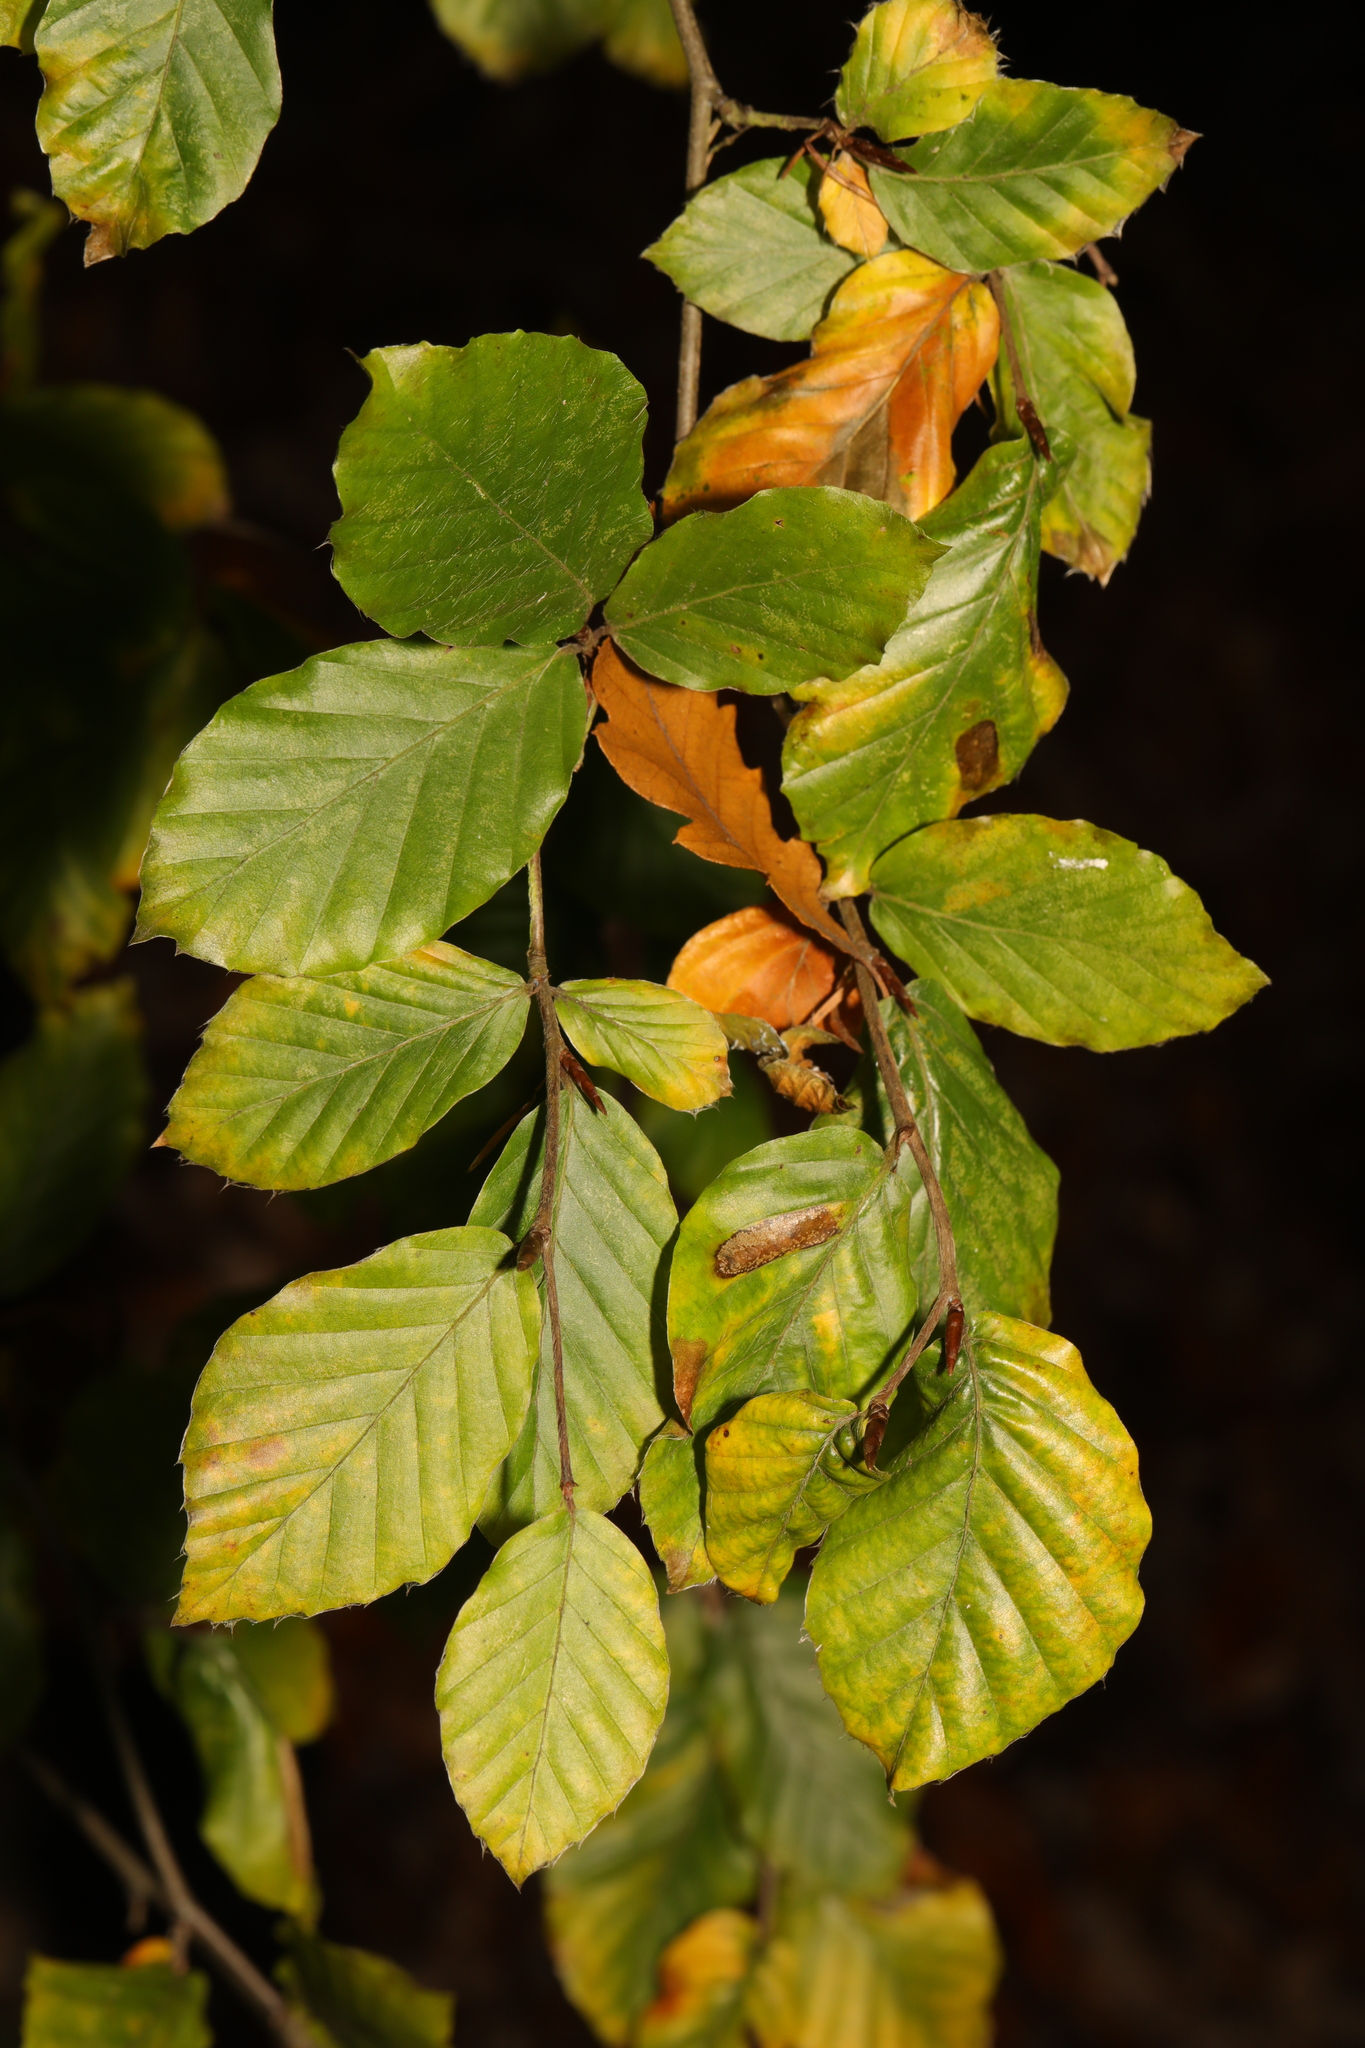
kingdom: Plantae
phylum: Tracheophyta
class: Magnoliopsida
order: Fagales
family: Fagaceae
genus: Fagus
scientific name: Fagus sylvatica
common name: Beech
